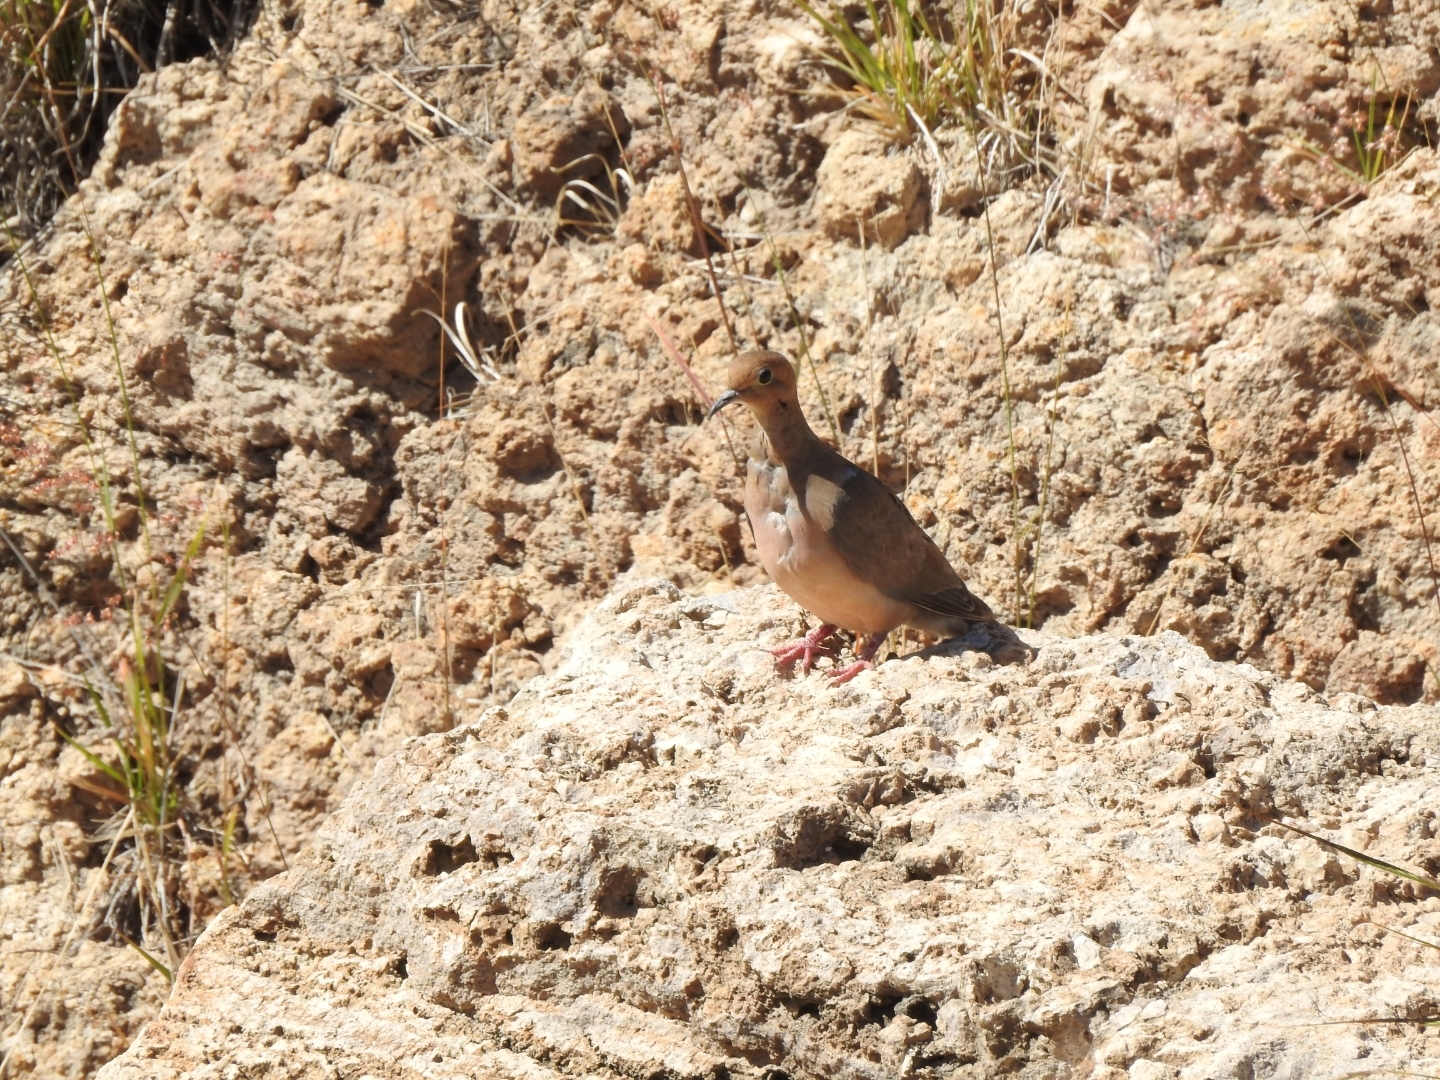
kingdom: Animalia
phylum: Chordata
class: Aves
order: Columbiformes
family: Columbidae
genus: Zenaida
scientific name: Zenaida macroura
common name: Mourning dove
